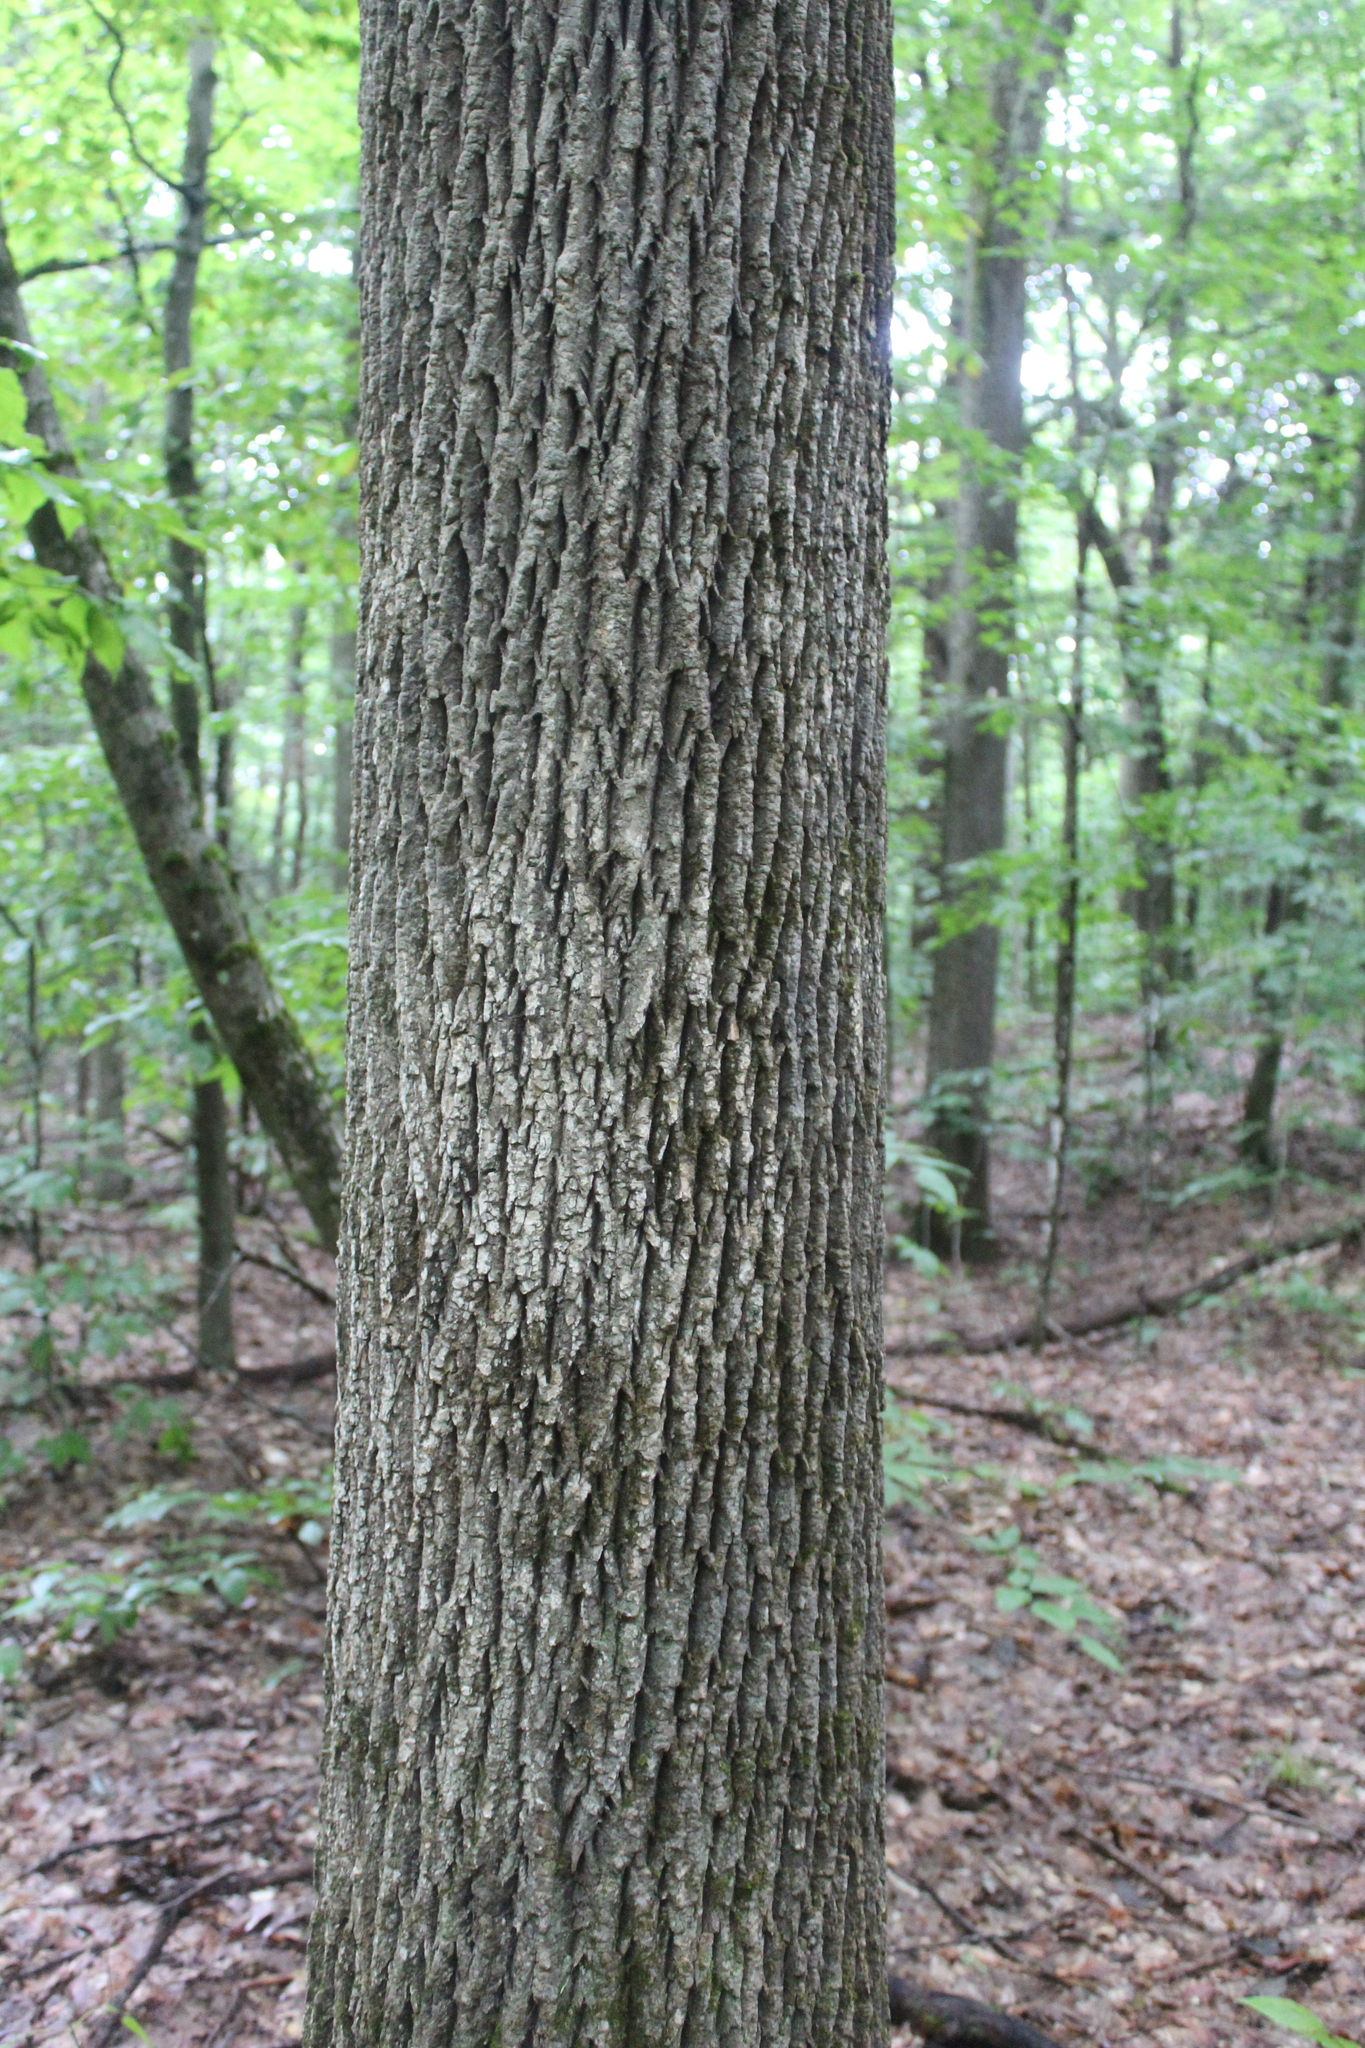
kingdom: Plantae
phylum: Tracheophyta
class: Magnoliopsida
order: Lamiales
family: Oleaceae
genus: Fraxinus
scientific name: Fraxinus americana
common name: White ash
